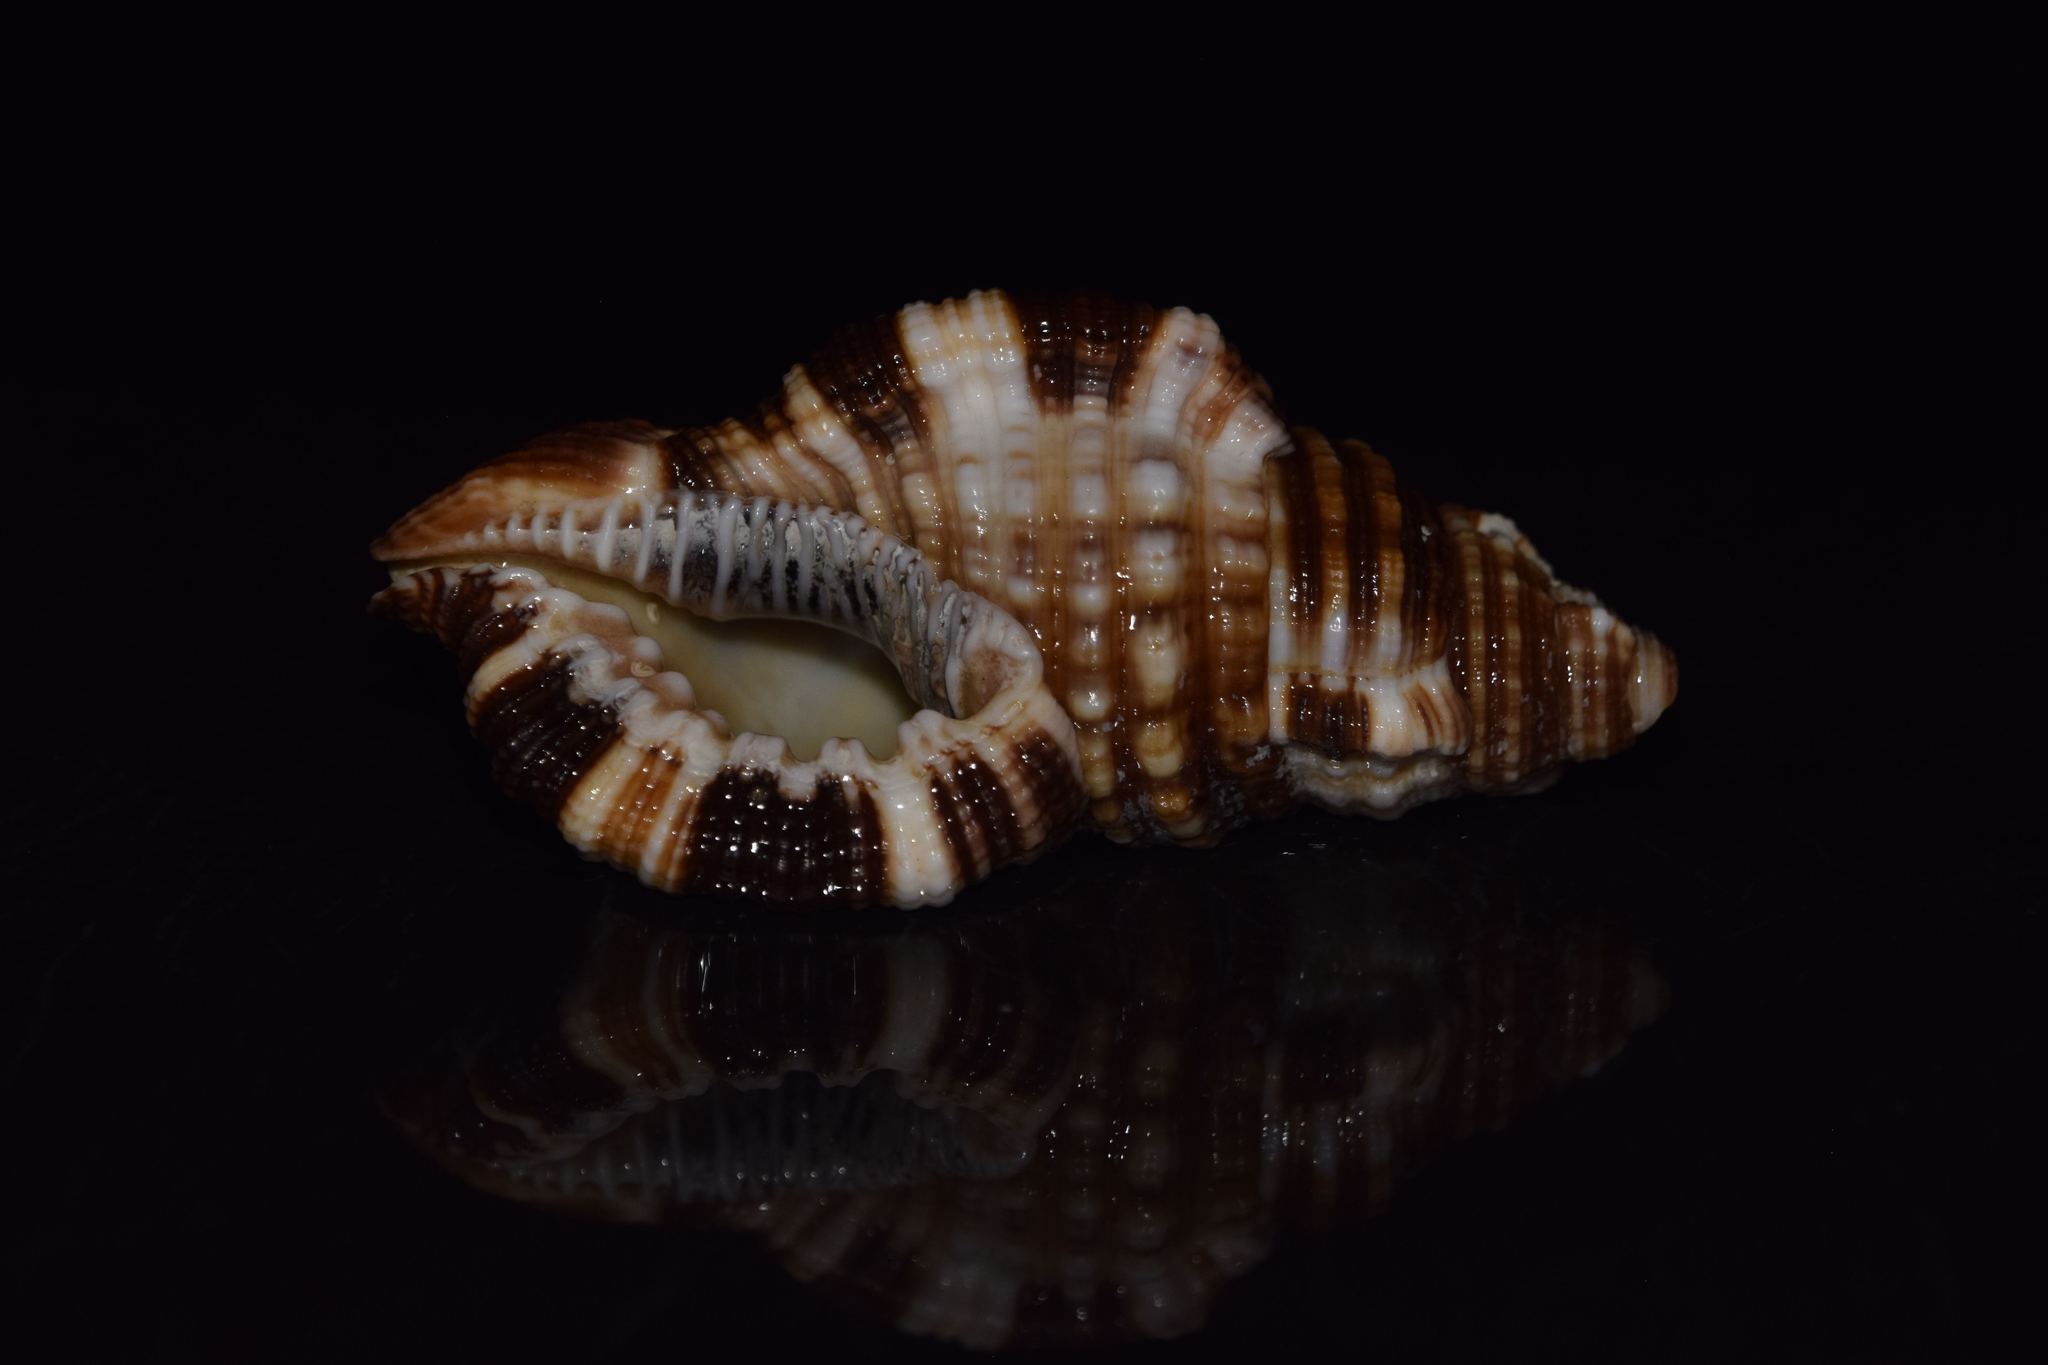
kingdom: Animalia
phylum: Mollusca
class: Gastropoda
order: Littorinimorpha
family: Cymatiidae
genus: Monoplex
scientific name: Monoplex intermedius
